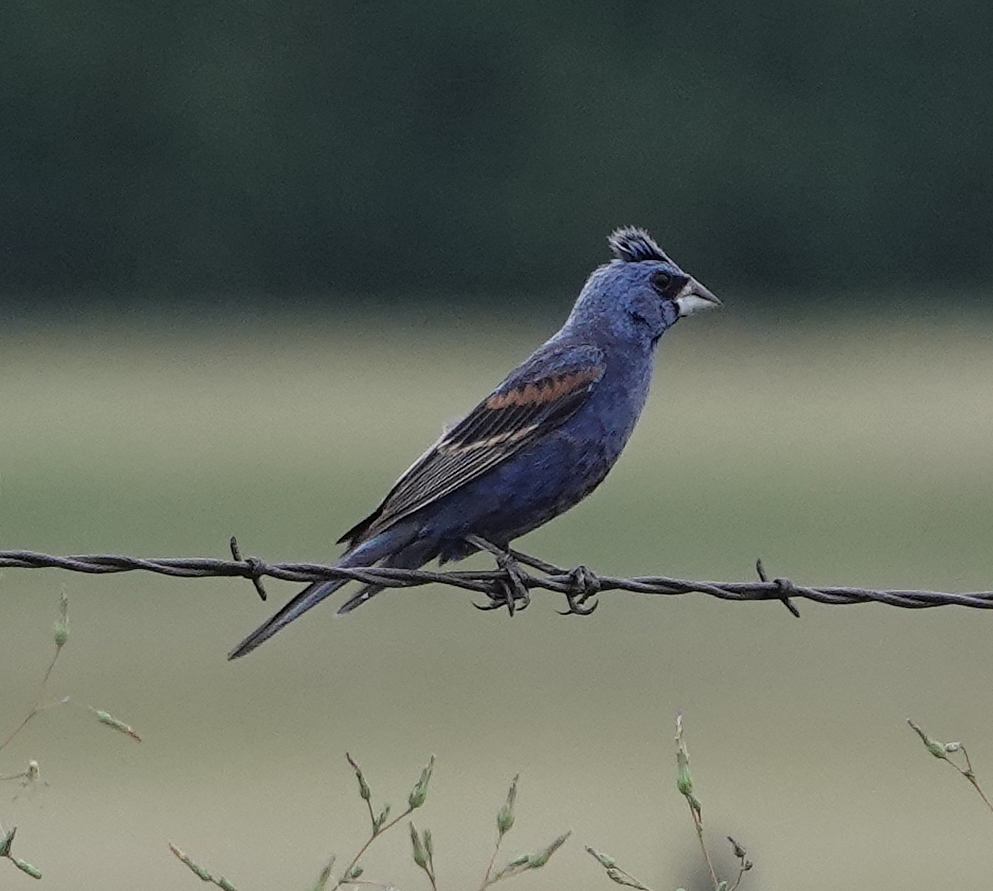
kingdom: Animalia
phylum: Chordata
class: Aves
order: Passeriformes
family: Cardinalidae
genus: Passerina
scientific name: Passerina caerulea
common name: Blue grosbeak
